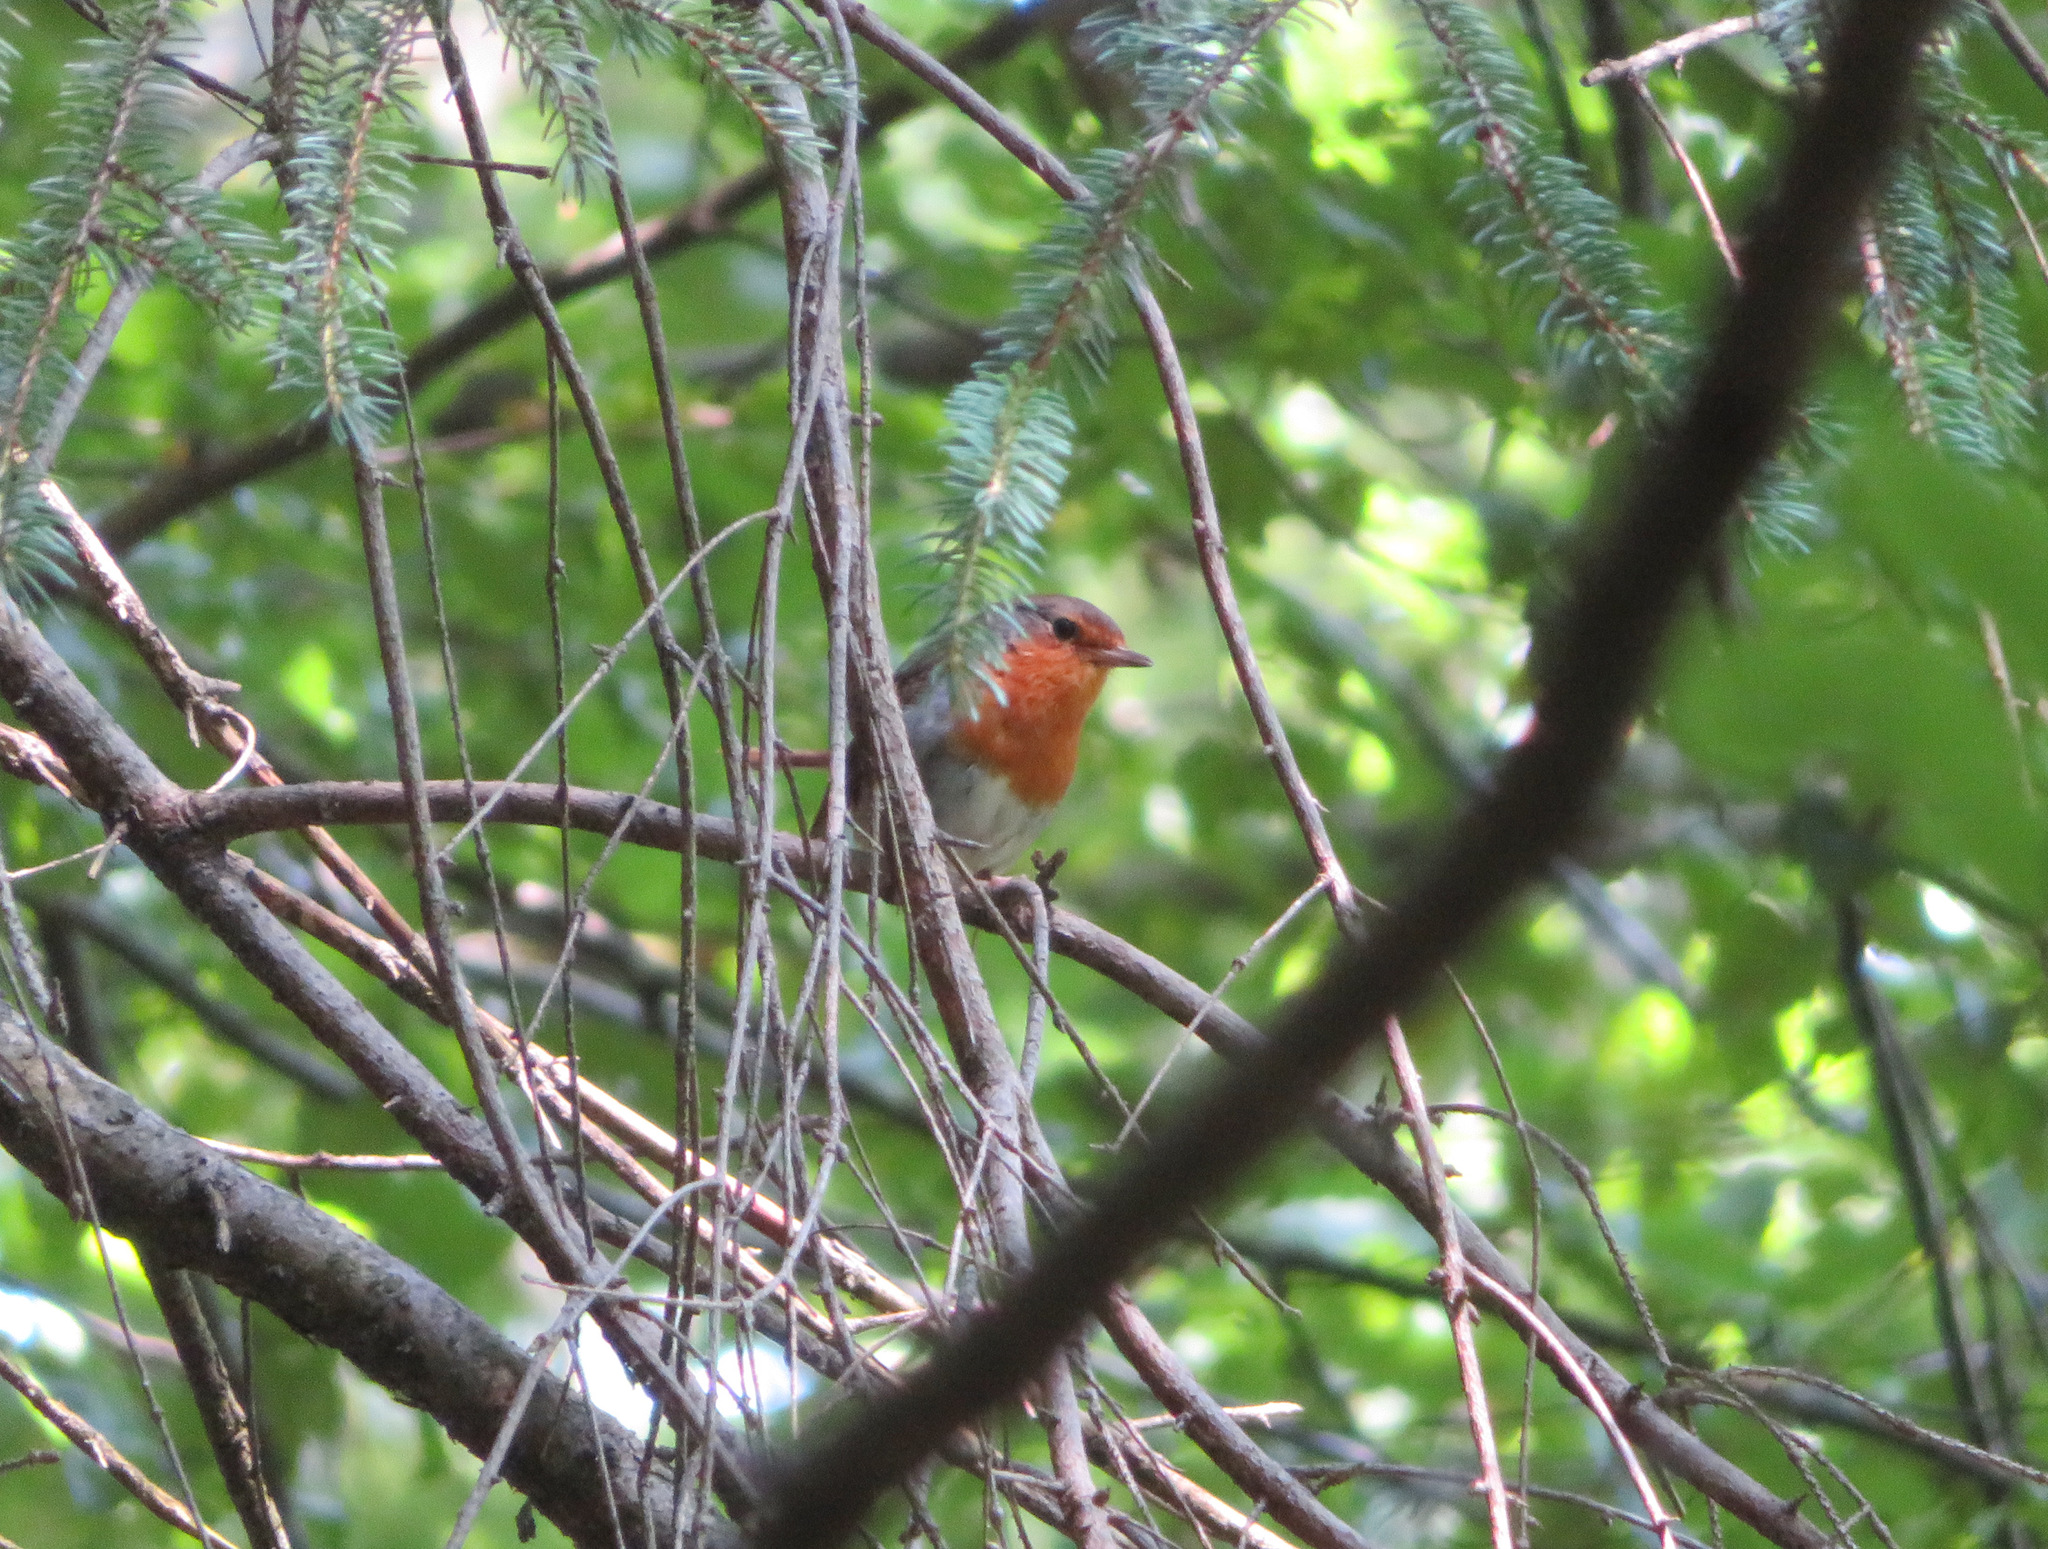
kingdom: Animalia
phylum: Chordata
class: Aves
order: Passeriformes
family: Muscicapidae
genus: Erithacus
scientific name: Erithacus rubecula
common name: European robin
